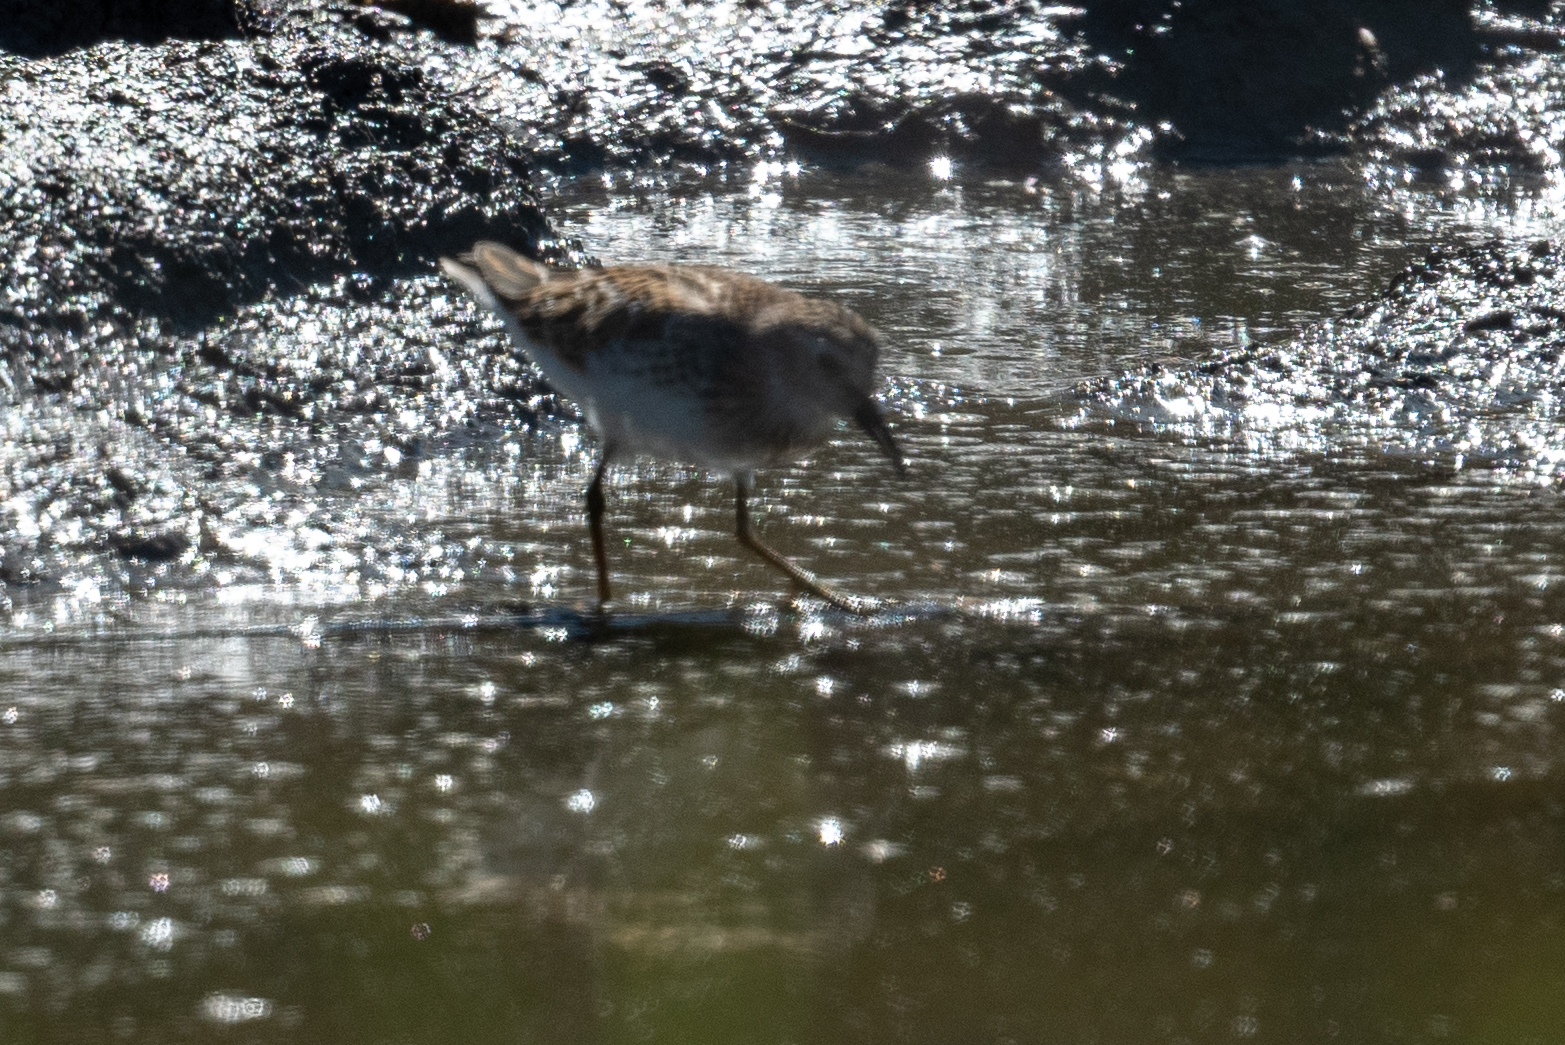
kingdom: Animalia
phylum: Chordata
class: Aves
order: Charadriiformes
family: Scolopacidae
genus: Calidris
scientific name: Calidris minutilla
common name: Least sandpiper
